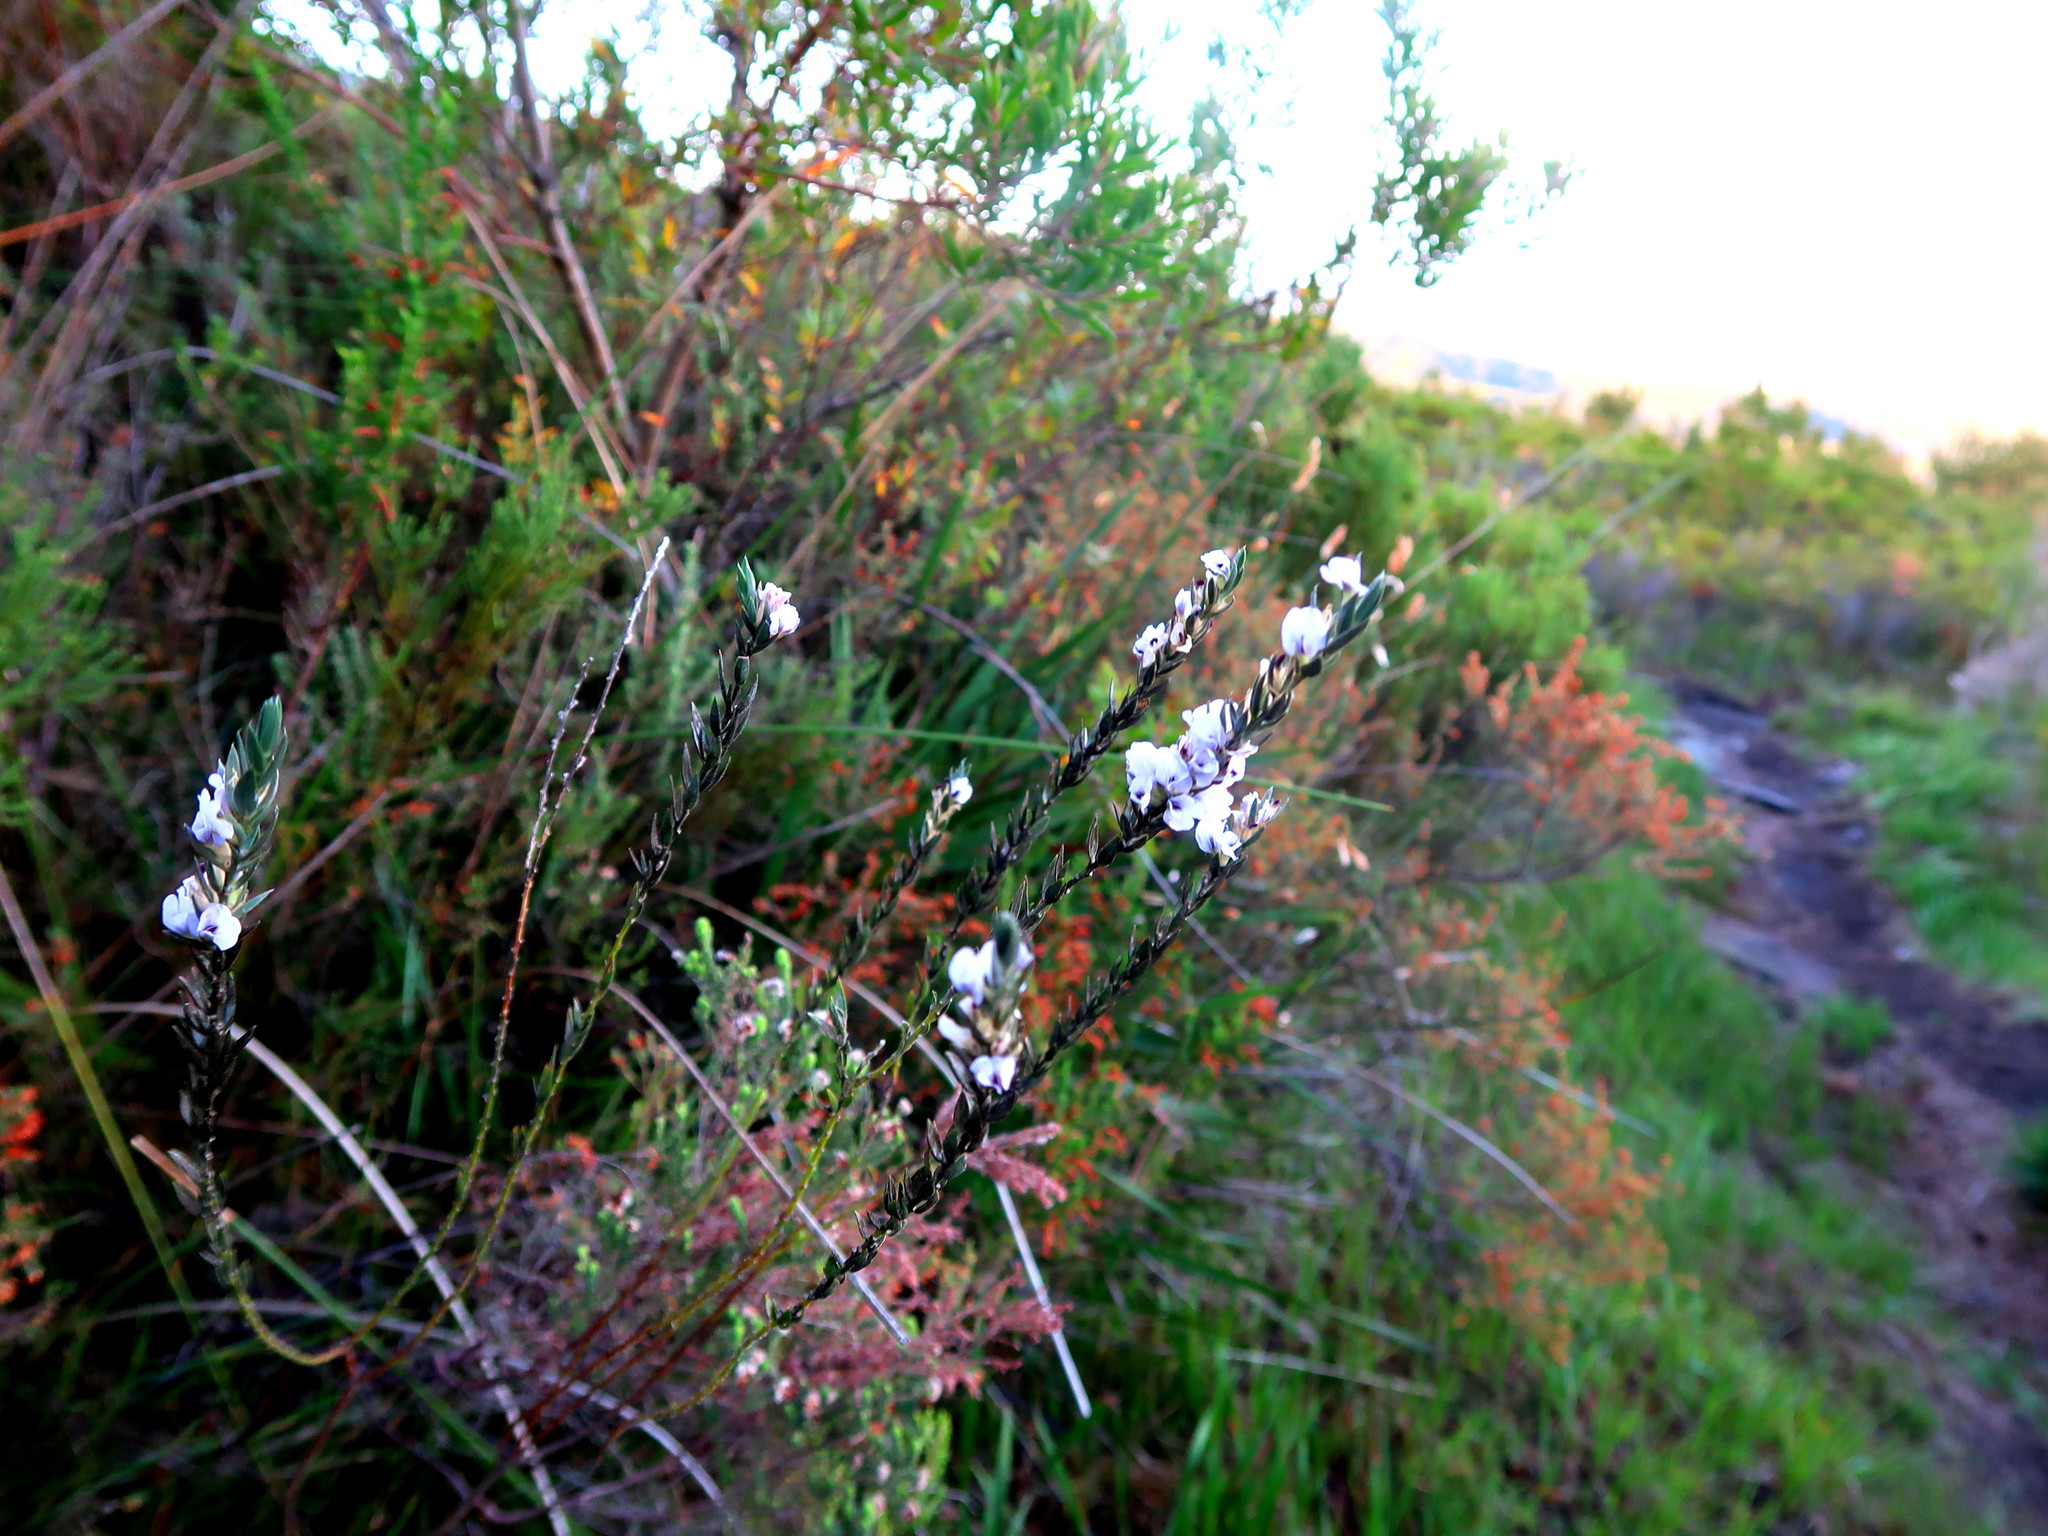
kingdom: Plantae
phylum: Tracheophyta
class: Magnoliopsida
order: Fabales
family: Fabaceae
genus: Amphithalea
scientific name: Amphithalea axillaris
